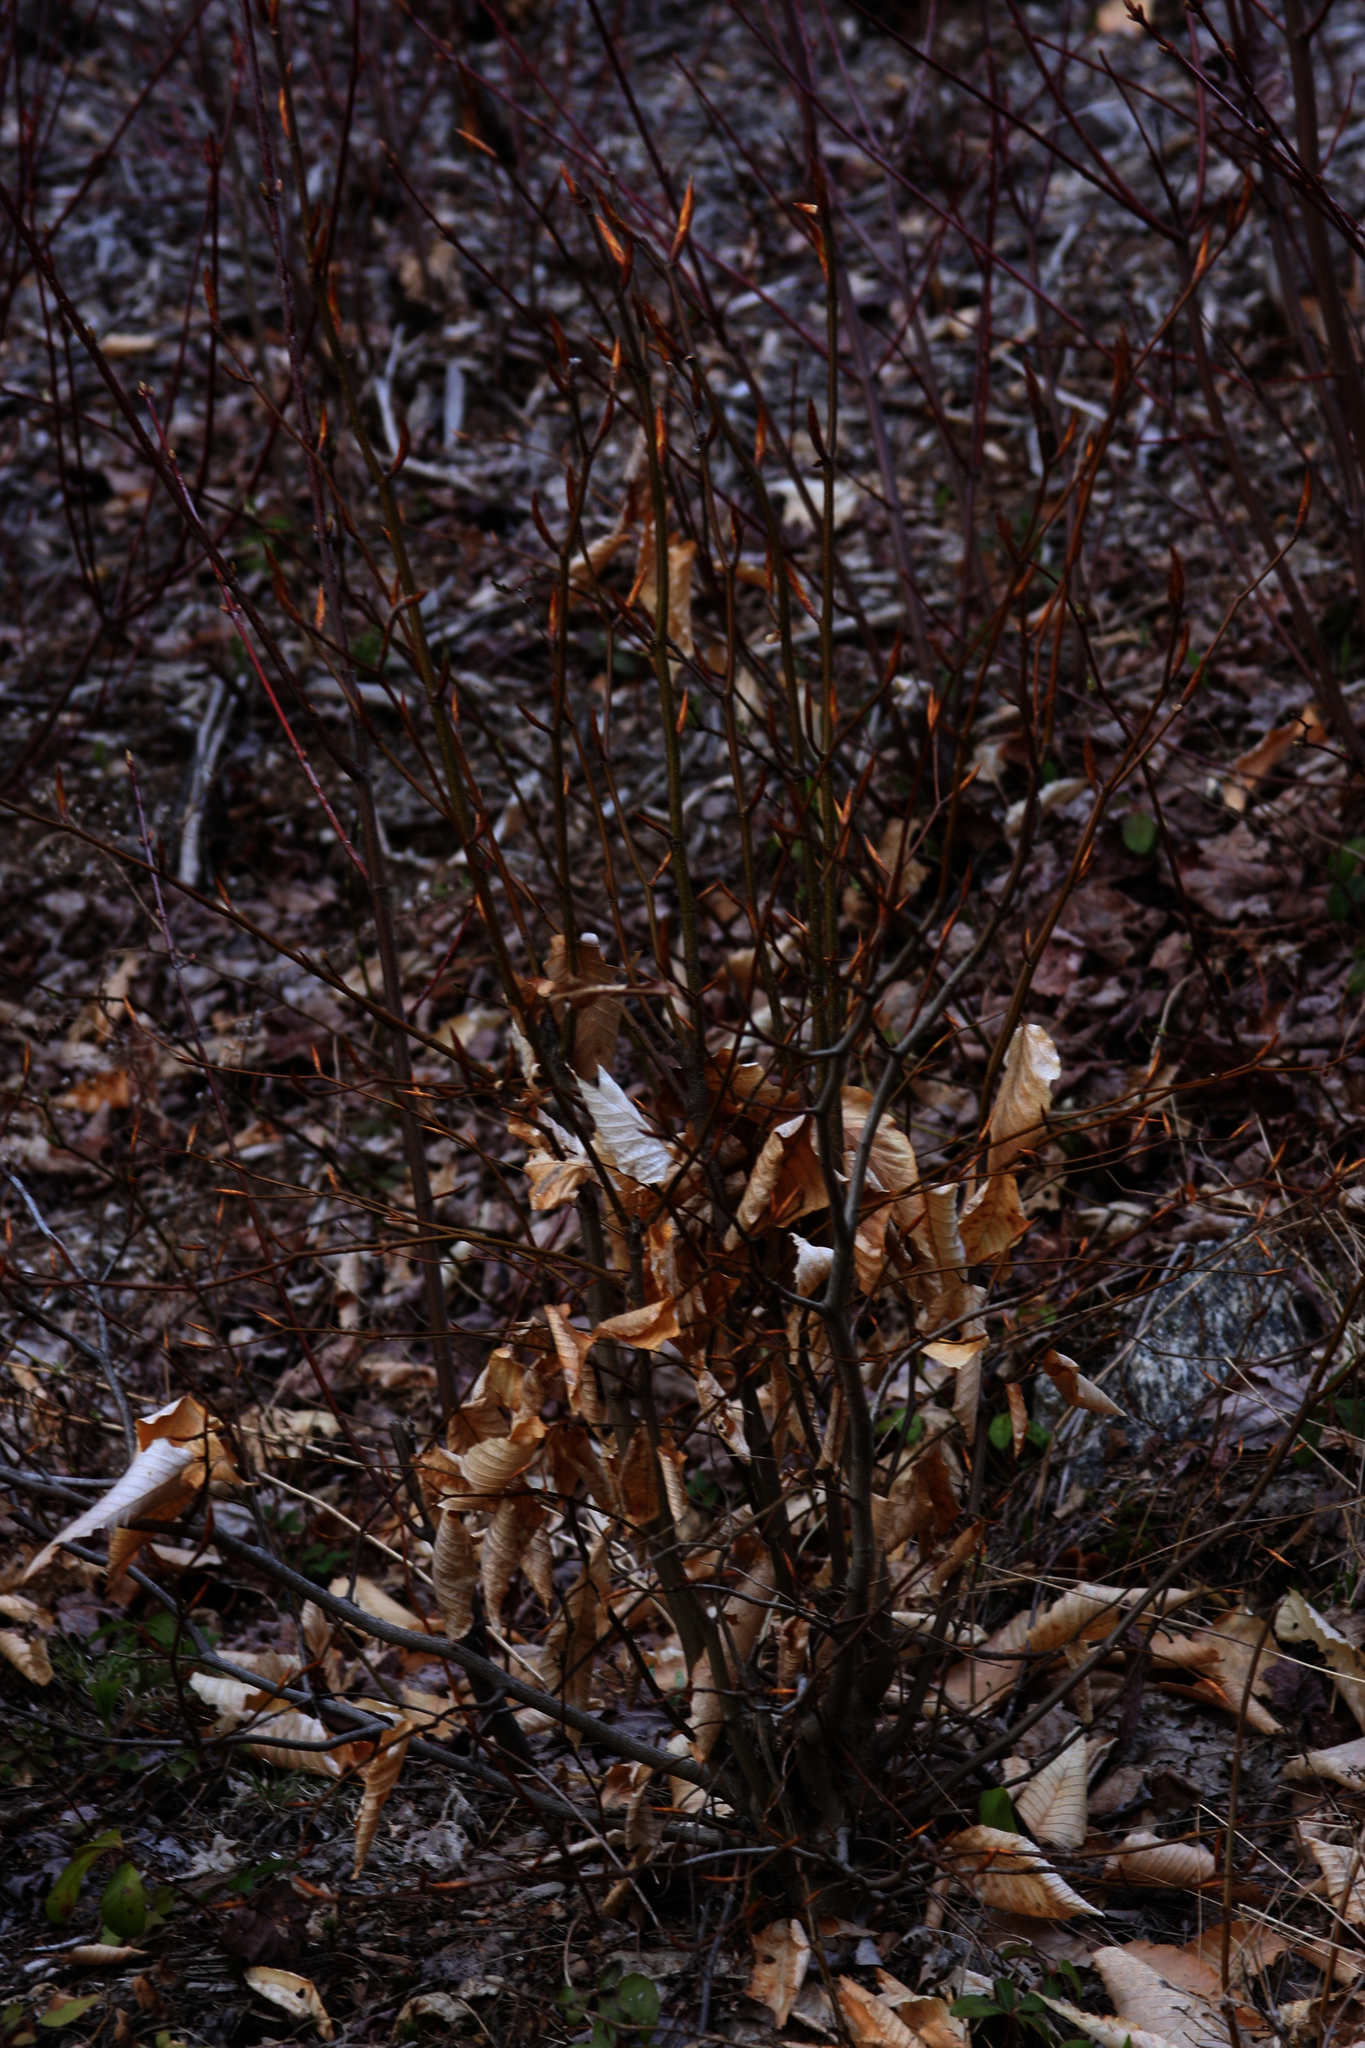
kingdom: Plantae
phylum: Tracheophyta
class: Magnoliopsida
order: Fagales
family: Fagaceae
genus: Fagus
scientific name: Fagus grandifolia
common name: American beech
